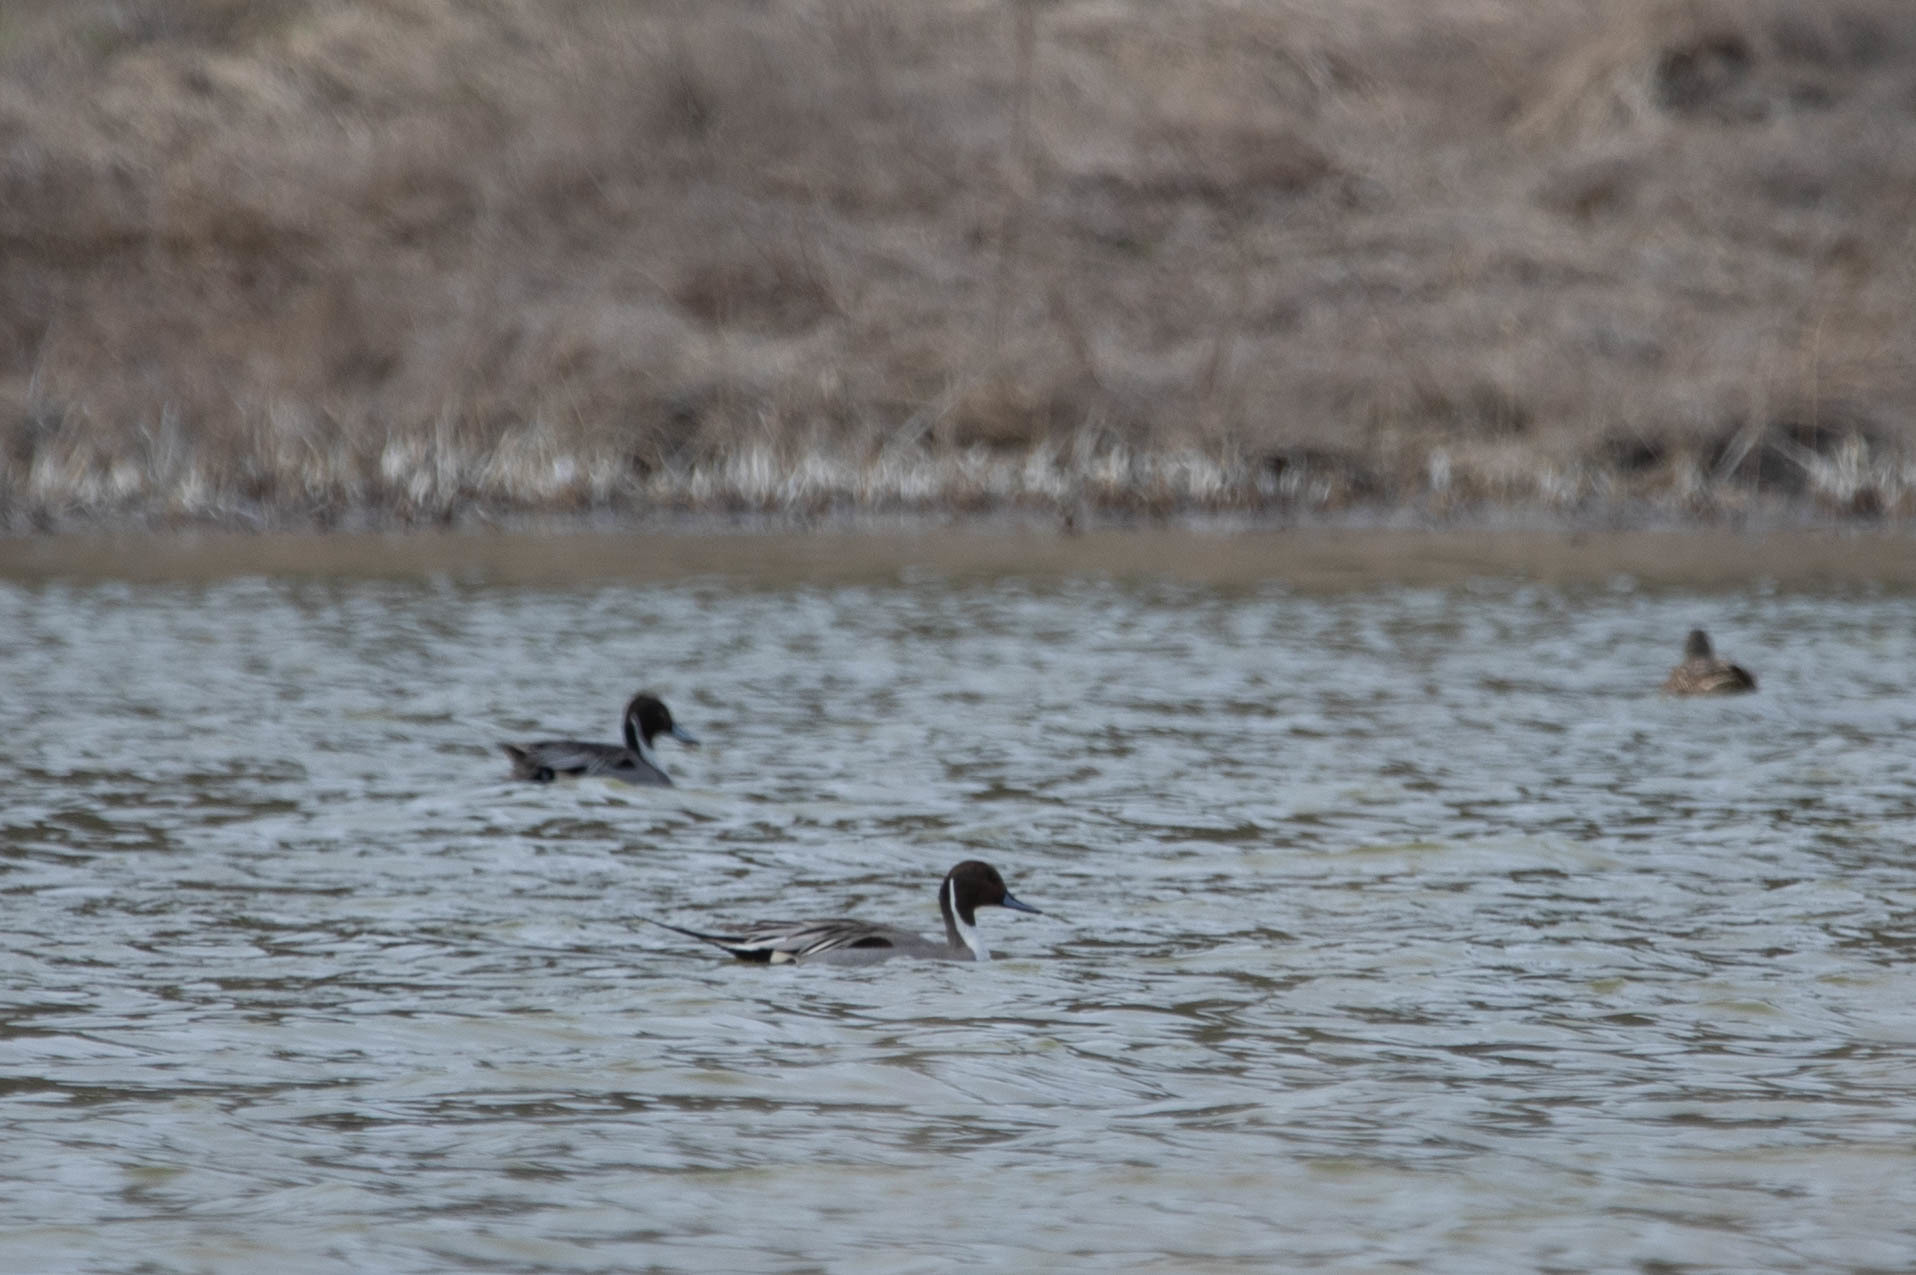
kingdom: Animalia
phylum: Chordata
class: Aves
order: Anseriformes
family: Anatidae
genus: Anas
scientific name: Anas acuta
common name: Northern pintail
